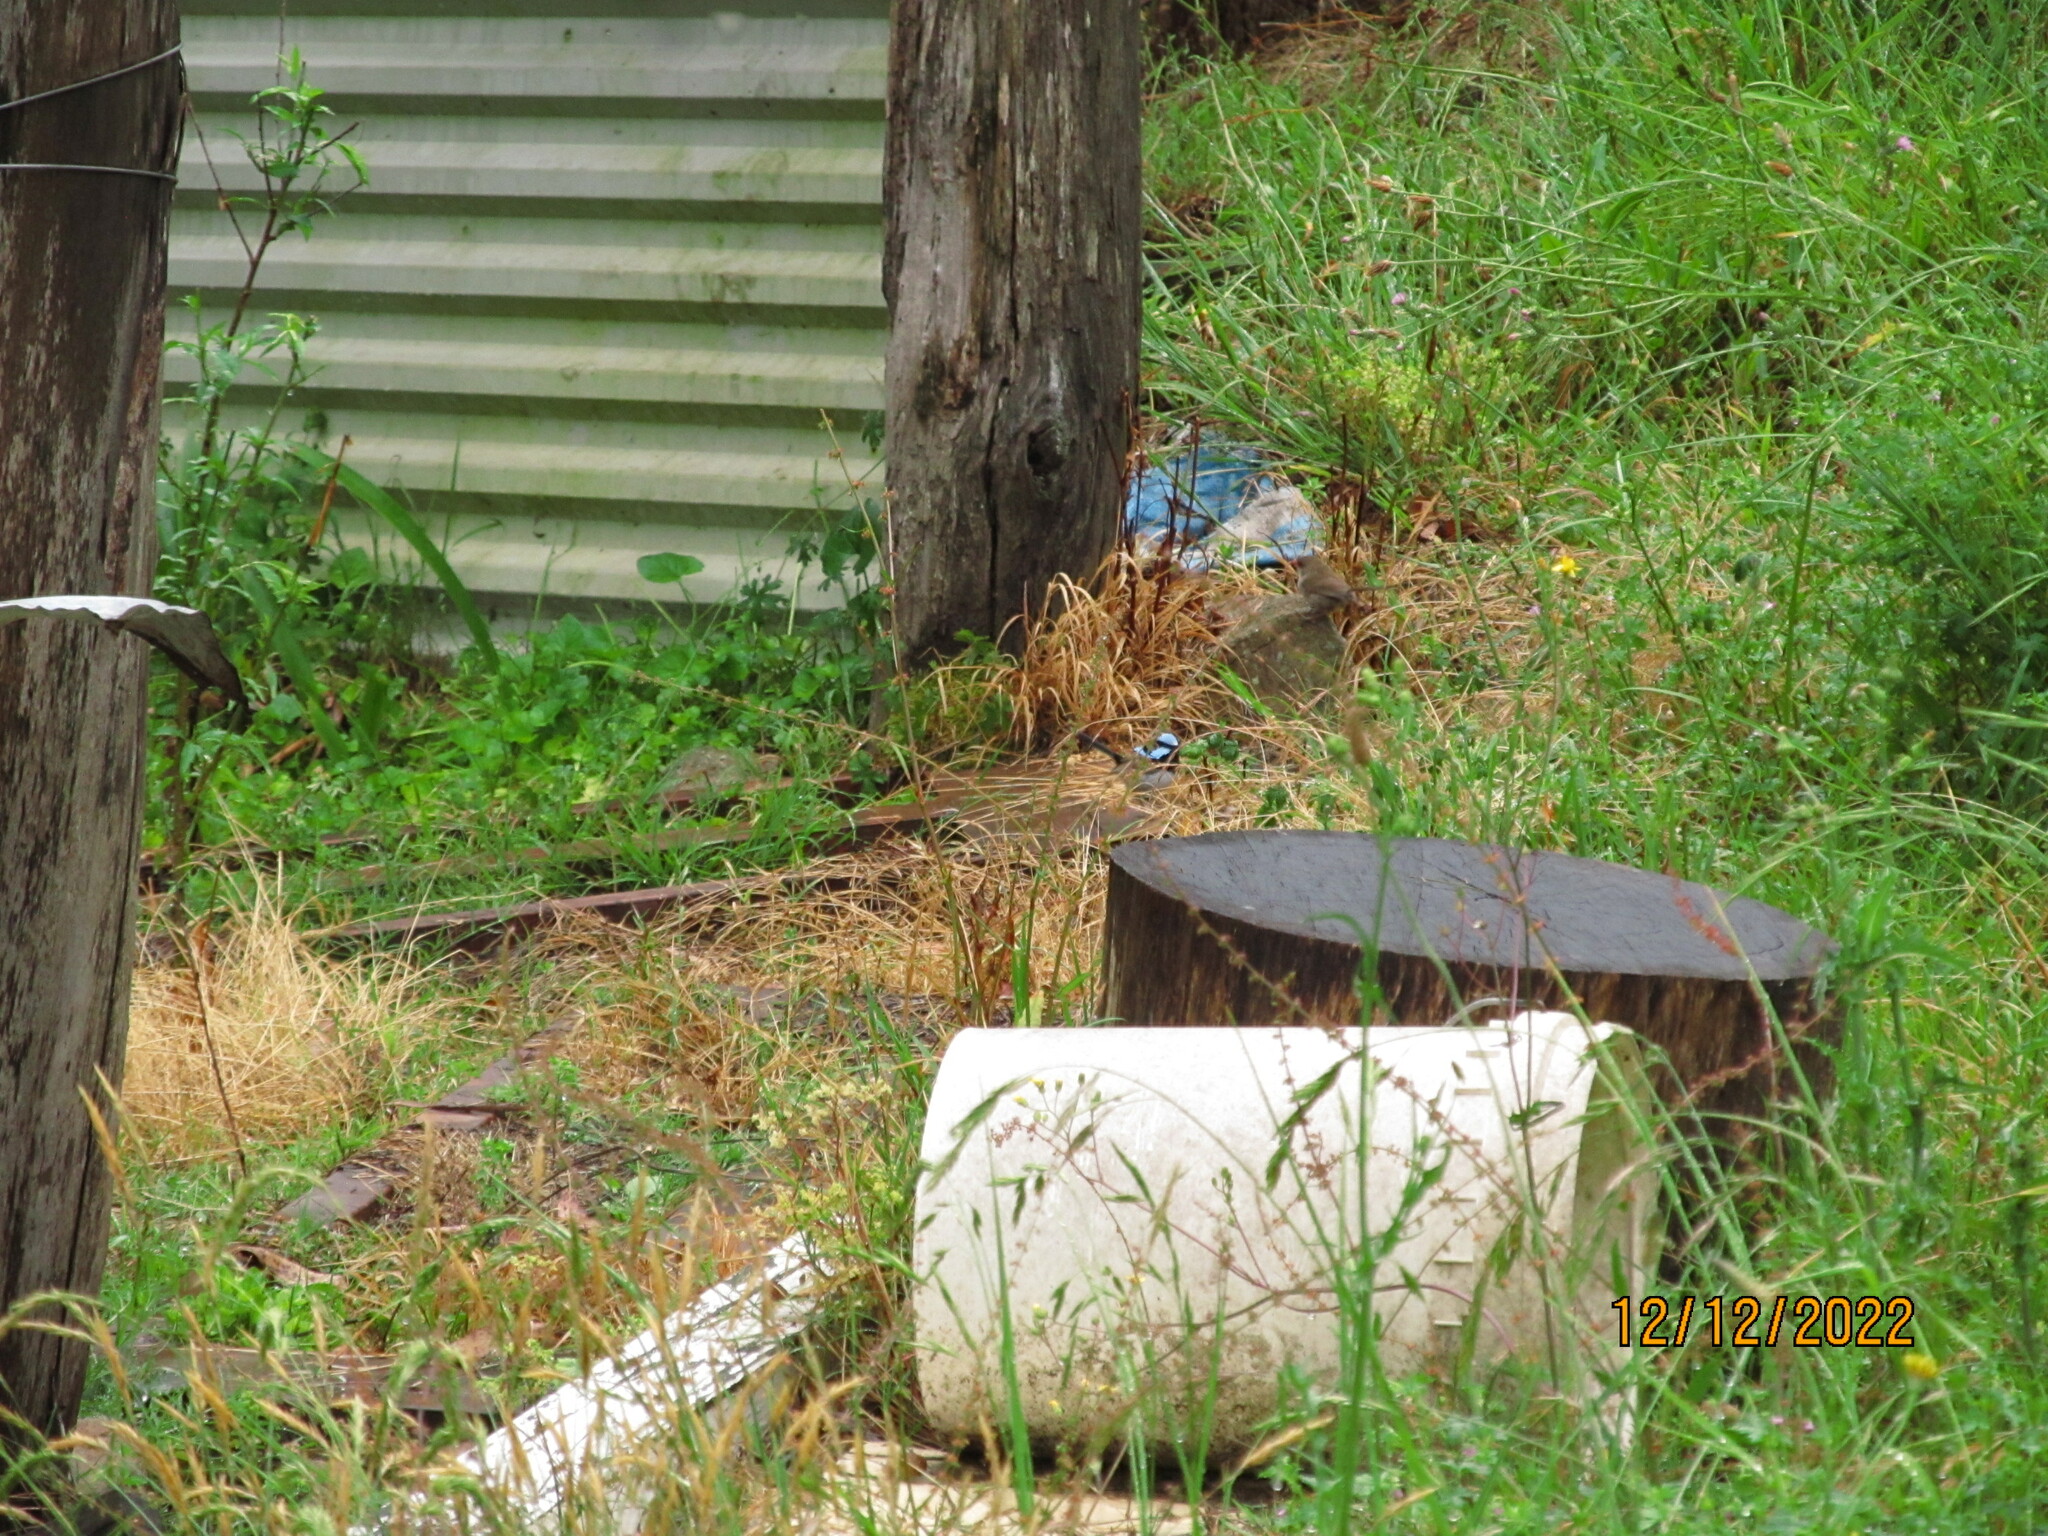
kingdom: Animalia
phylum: Chordata
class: Aves
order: Passeriformes
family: Maluridae
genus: Malurus
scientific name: Malurus cyaneus
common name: Superb fairywren
